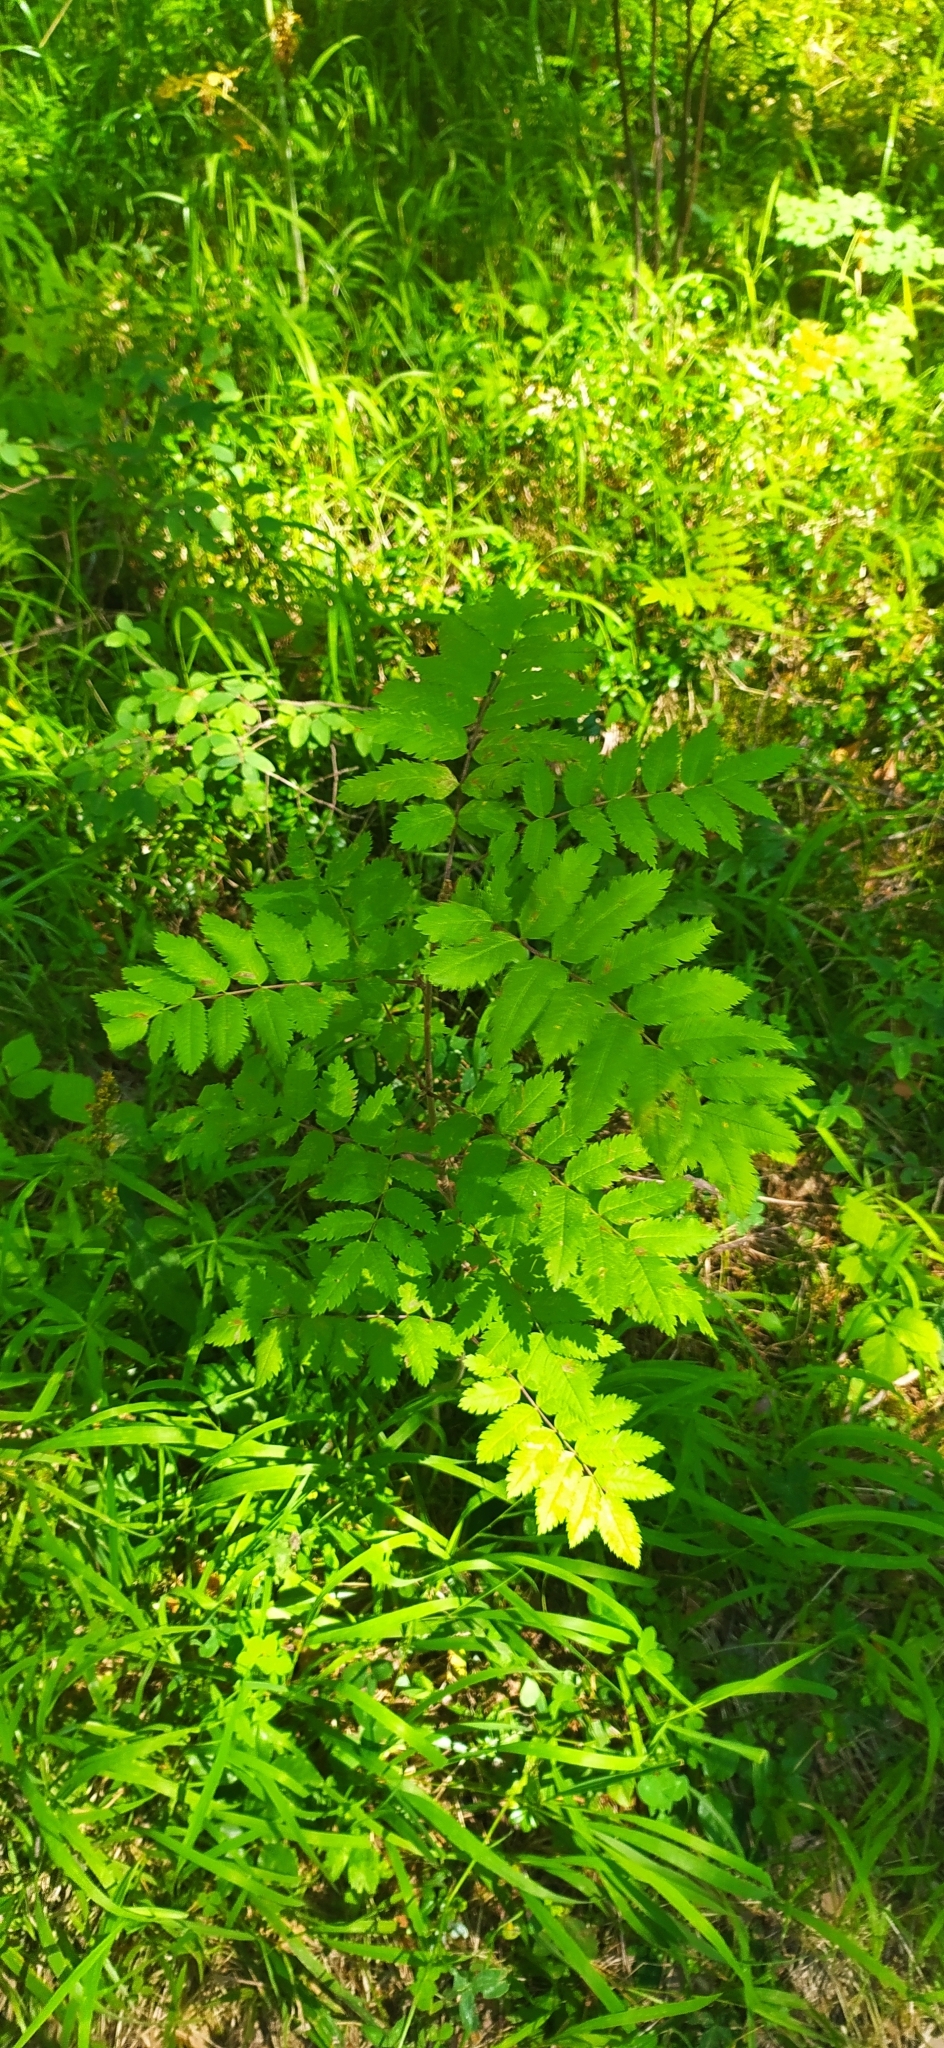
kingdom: Plantae
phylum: Tracheophyta
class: Magnoliopsida
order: Rosales
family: Rosaceae
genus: Sorbus
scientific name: Sorbus aucuparia
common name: Rowan
